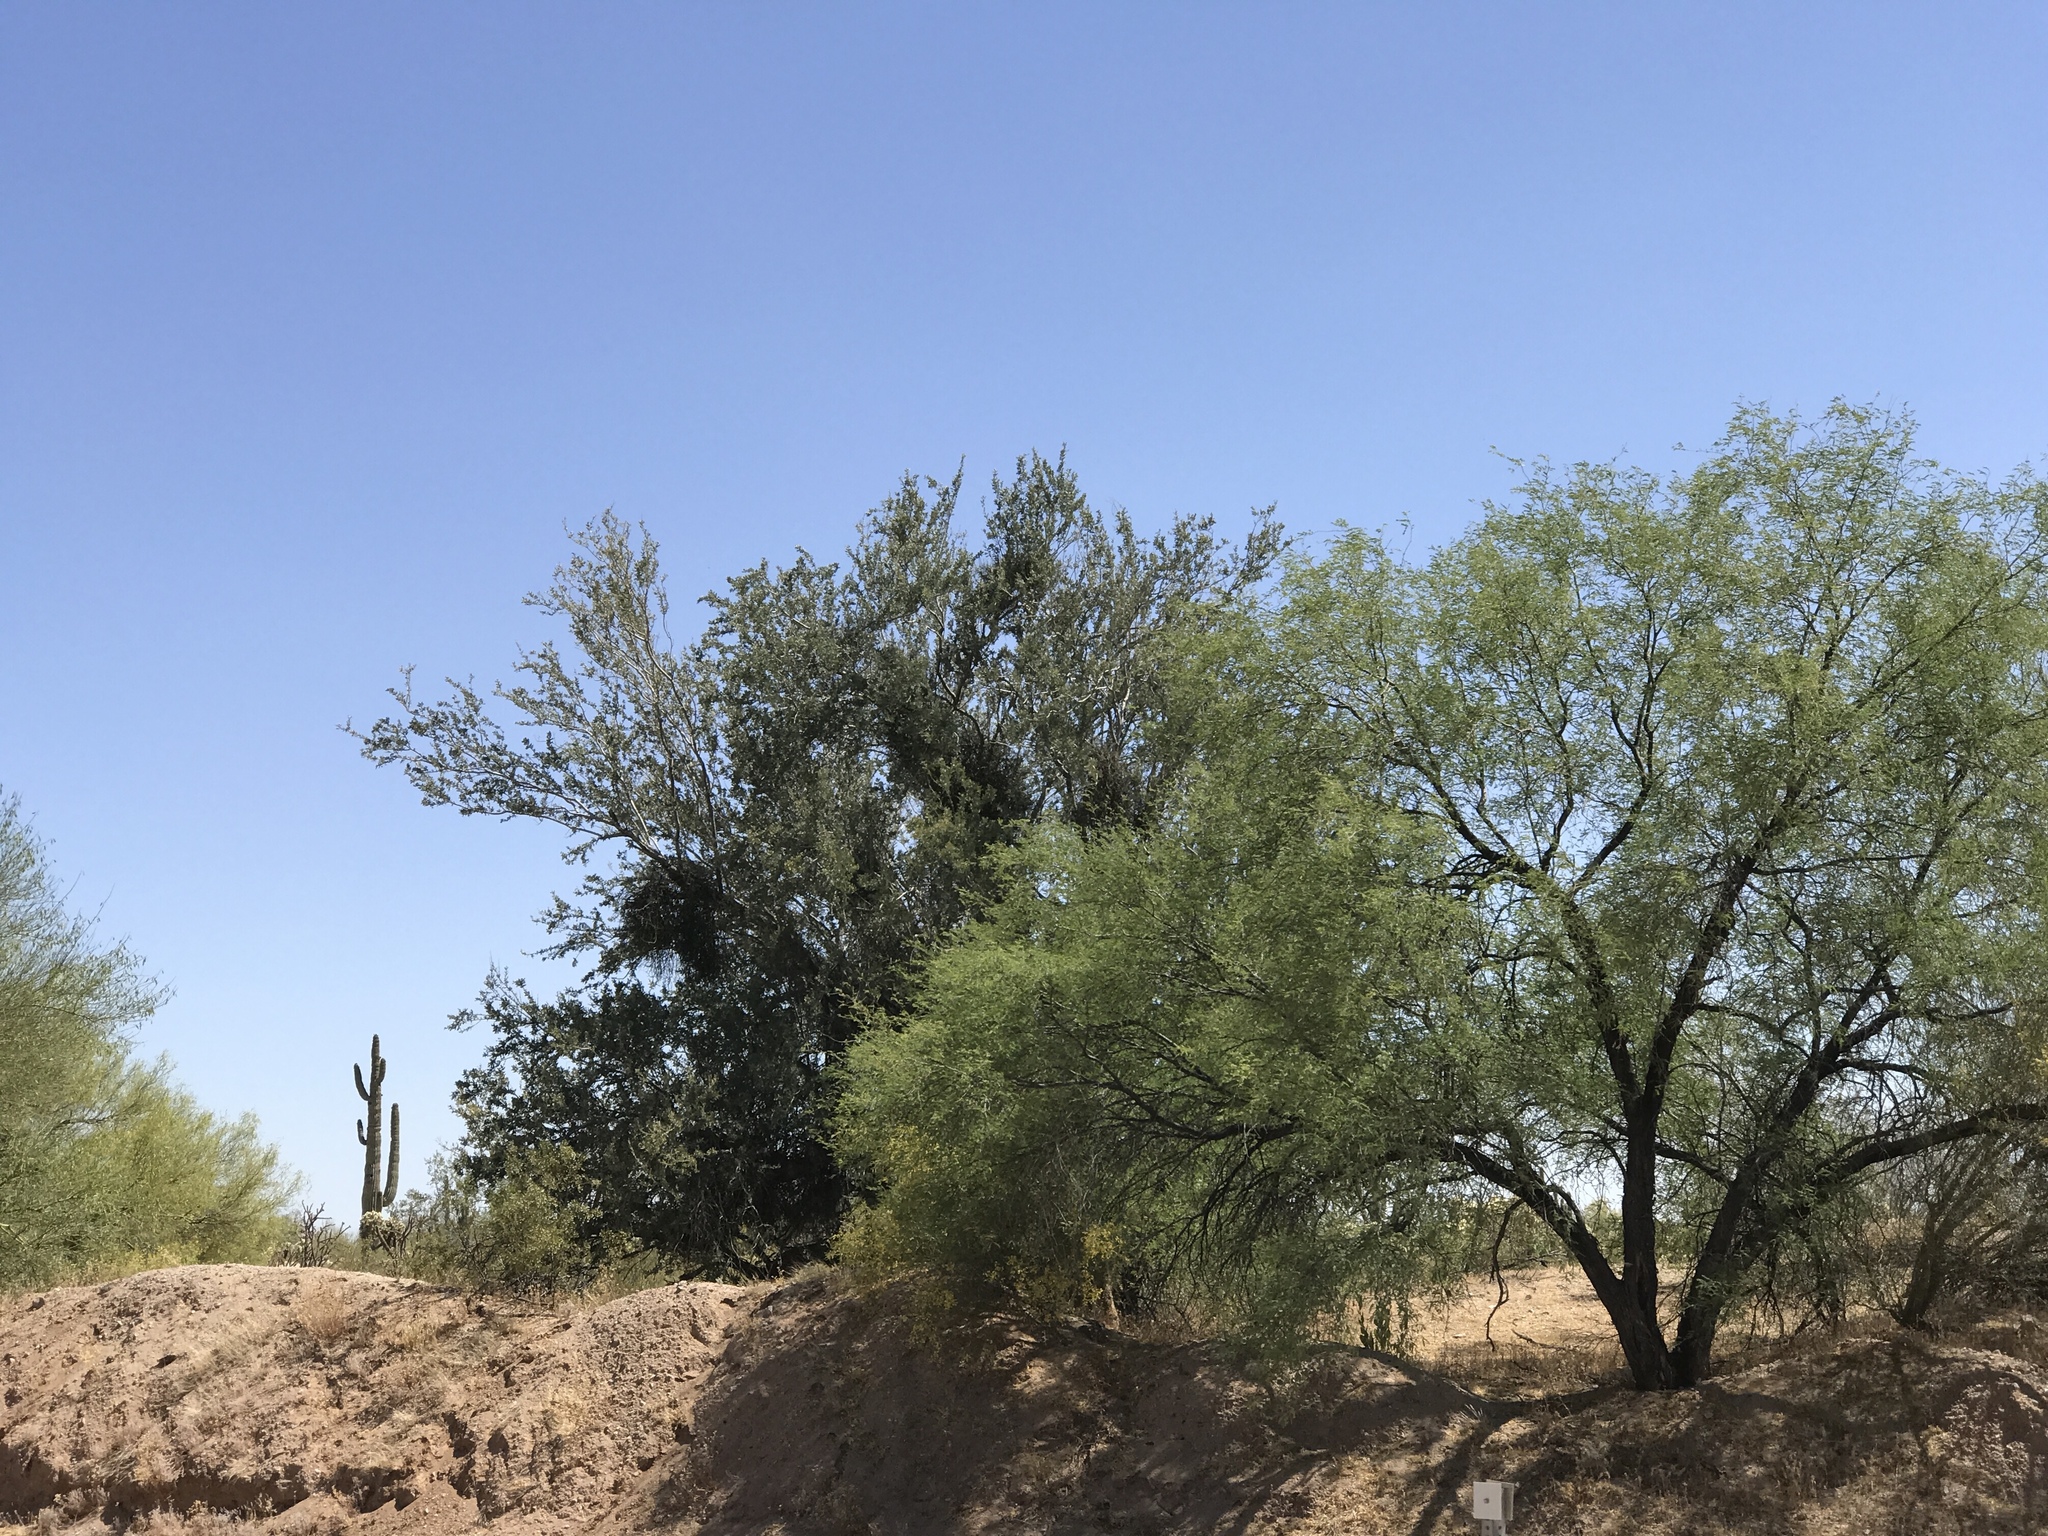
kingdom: Plantae
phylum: Tracheophyta
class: Magnoliopsida
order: Fabales
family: Fabaceae
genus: Prosopis
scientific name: Prosopis velutina
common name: Velvet mesquite
